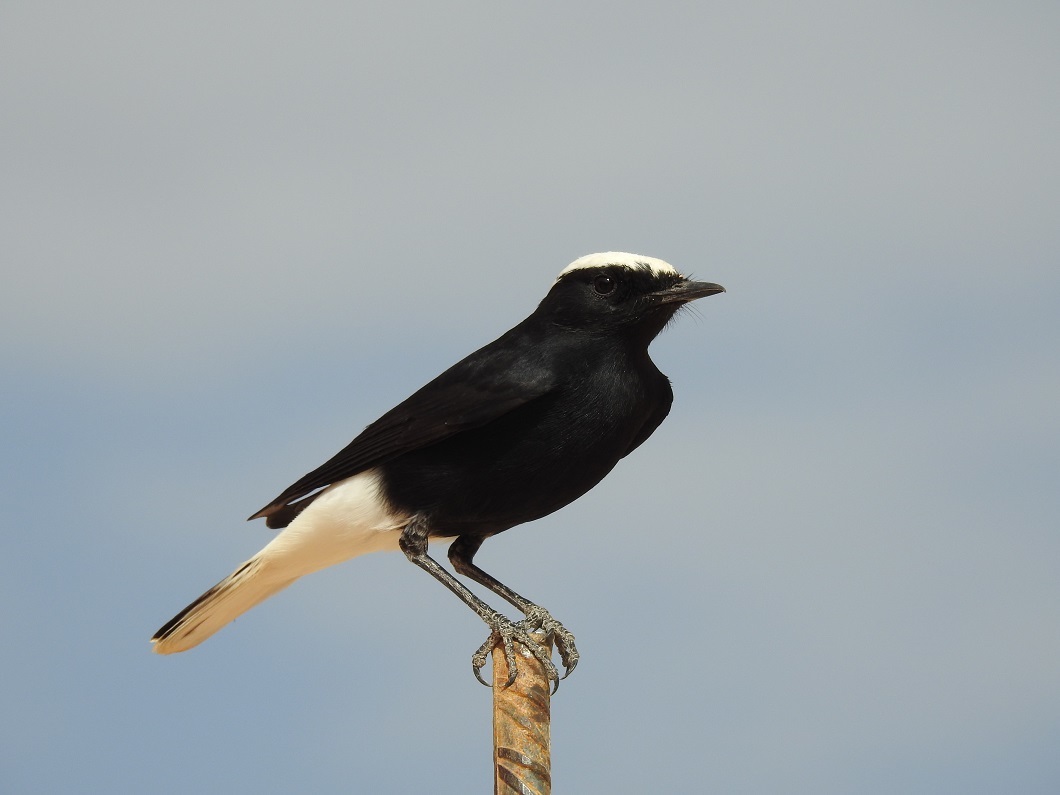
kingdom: Animalia
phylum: Chordata
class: Aves
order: Passeriformes
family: Muscicapidae
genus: Oenanthe
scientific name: Oenanthe leucopyga
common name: White-crowned wheatear
